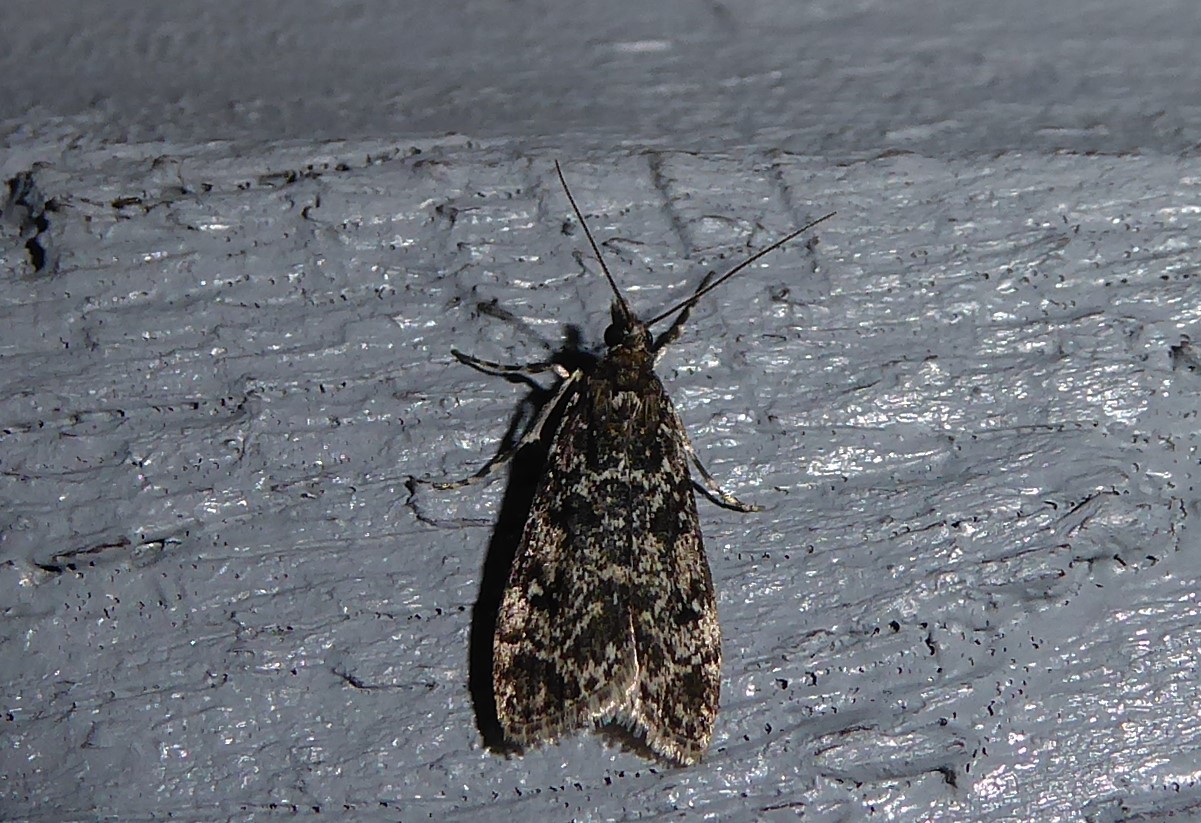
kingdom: Animalia
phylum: Arthropoda
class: Insecta
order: Lepidoptera
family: Crambidae
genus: Eudonia
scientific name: Eudonia philerga
